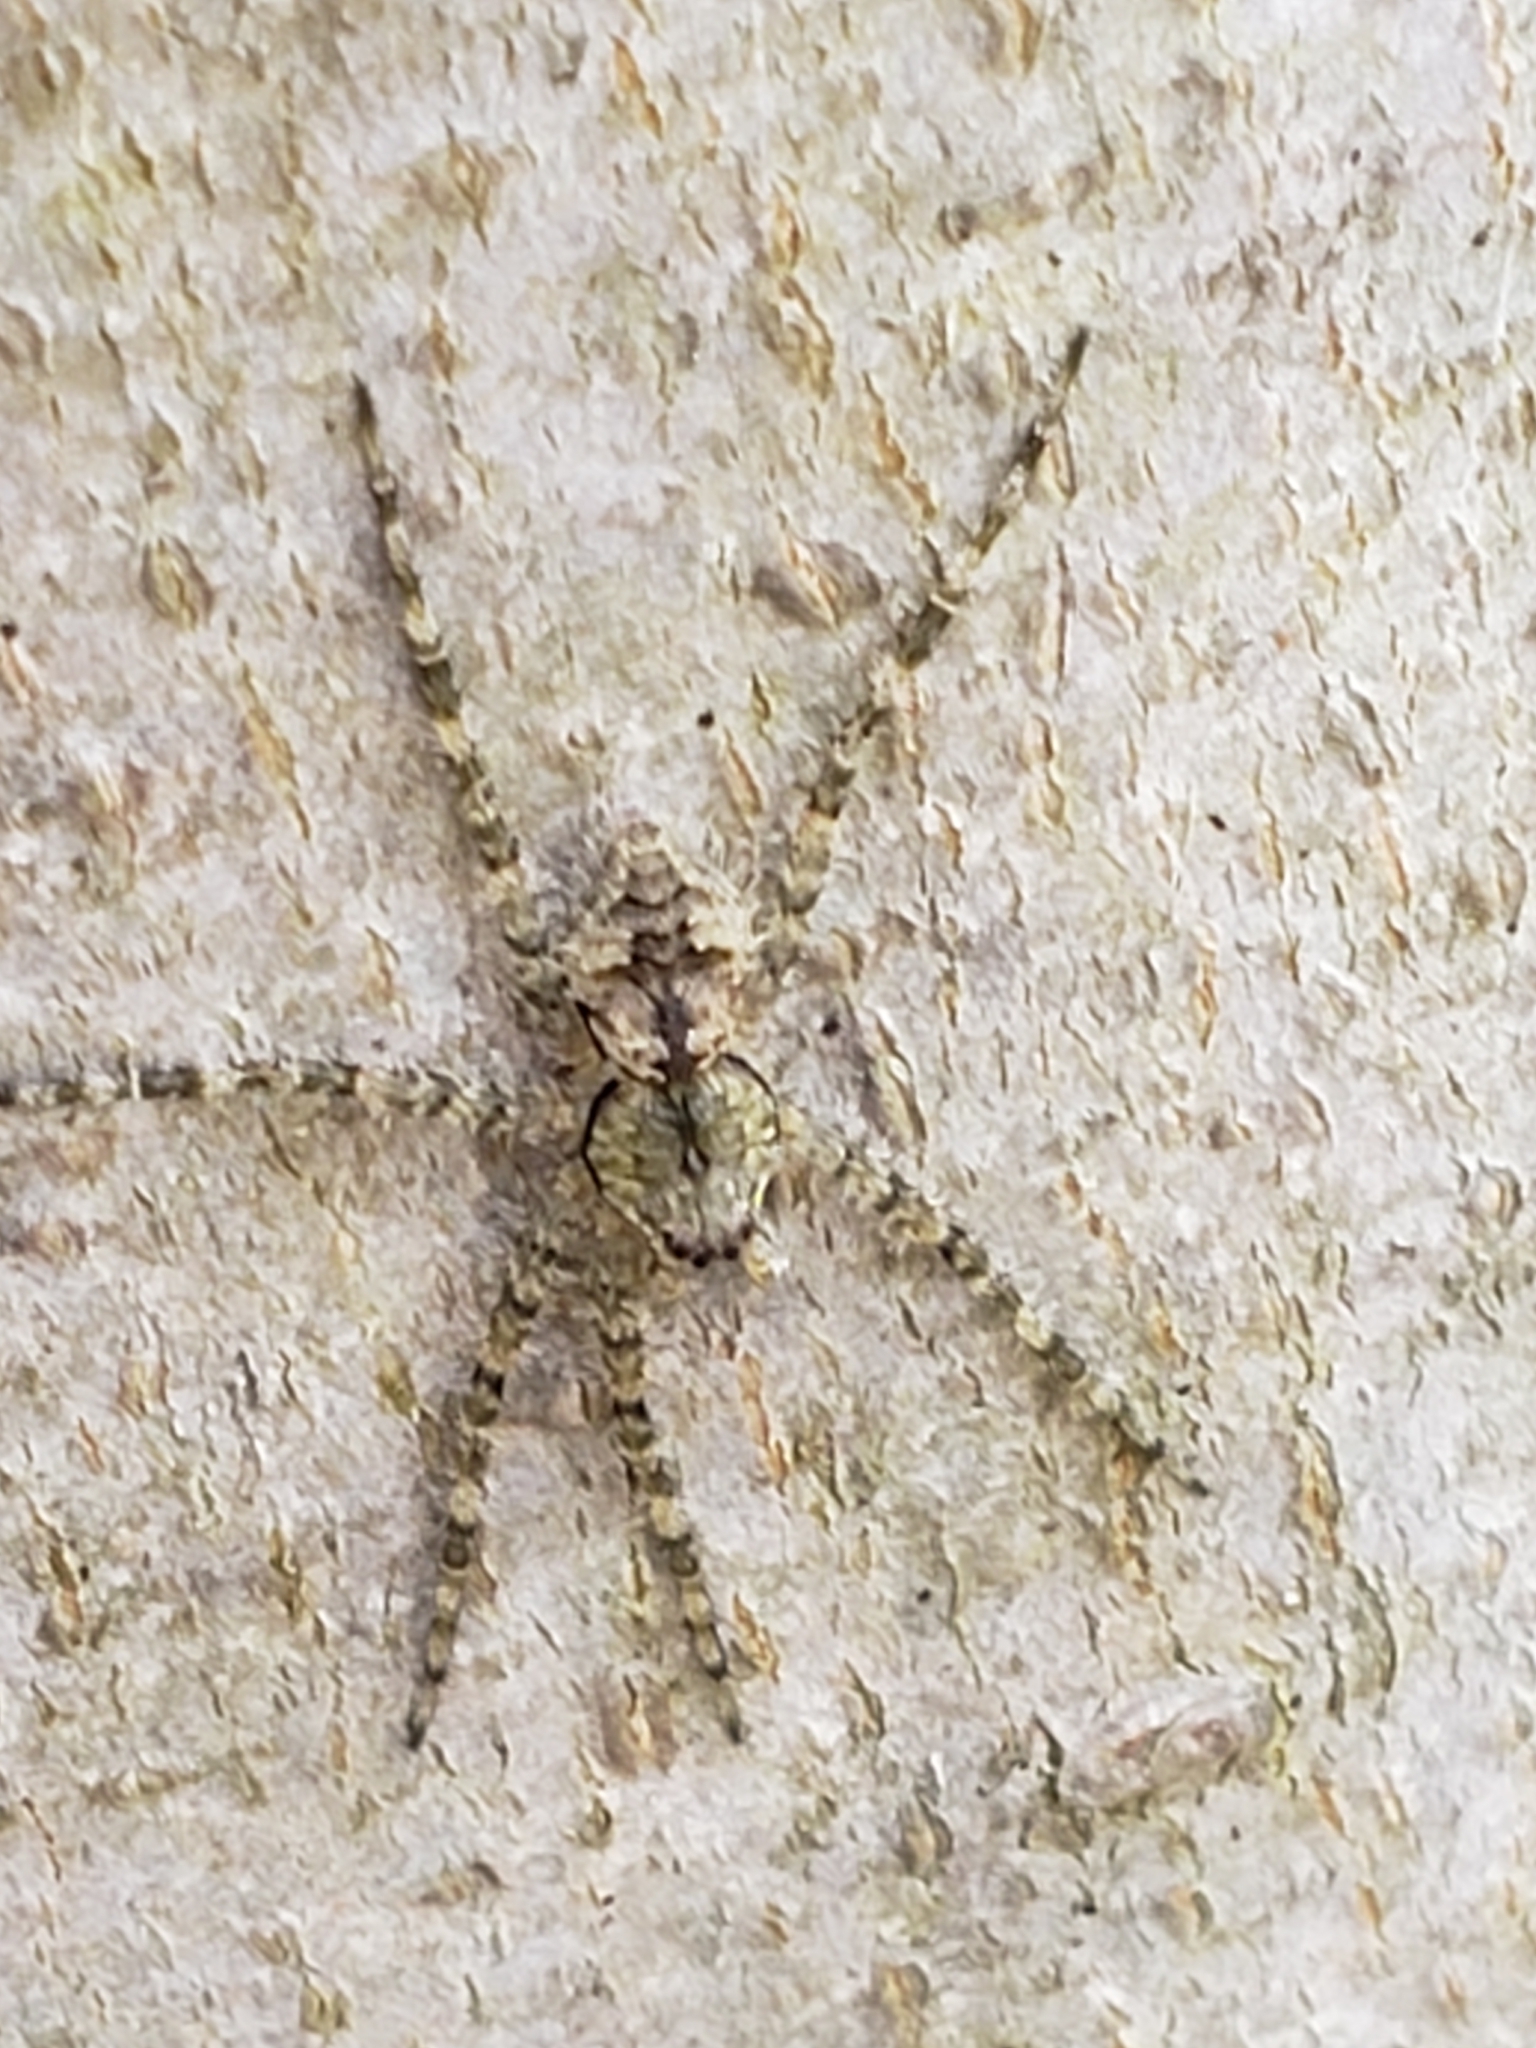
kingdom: Animalia
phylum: Arthropoda
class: Arachnida
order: Araneae
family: Pisauridae
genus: Dolomedes
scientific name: Dolomedes albineus
